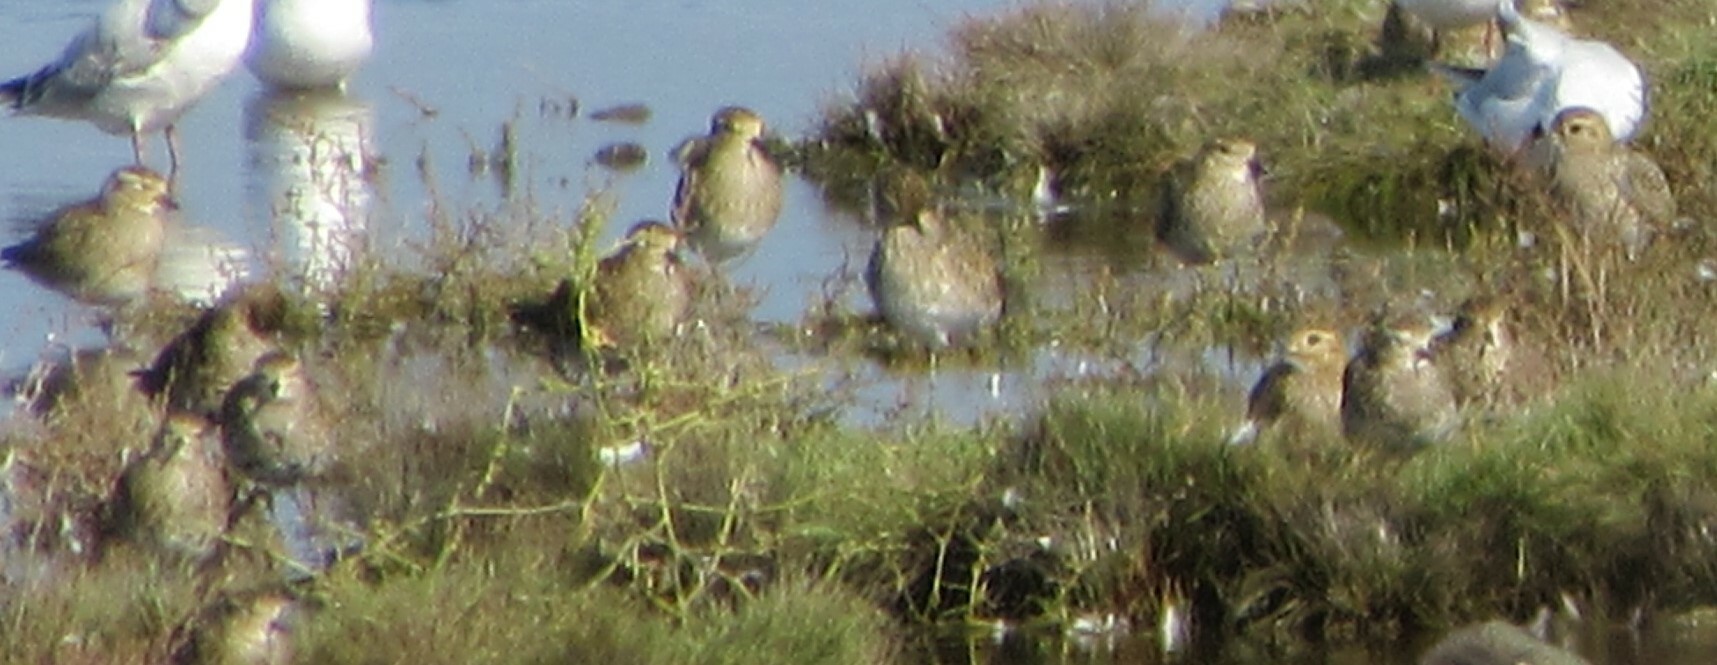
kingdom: Animalia
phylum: Chordata
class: Aves
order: Charadriiformes
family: Charadriidae
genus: Pluvialis
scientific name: Pluvialis apricaria
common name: European golden plover
